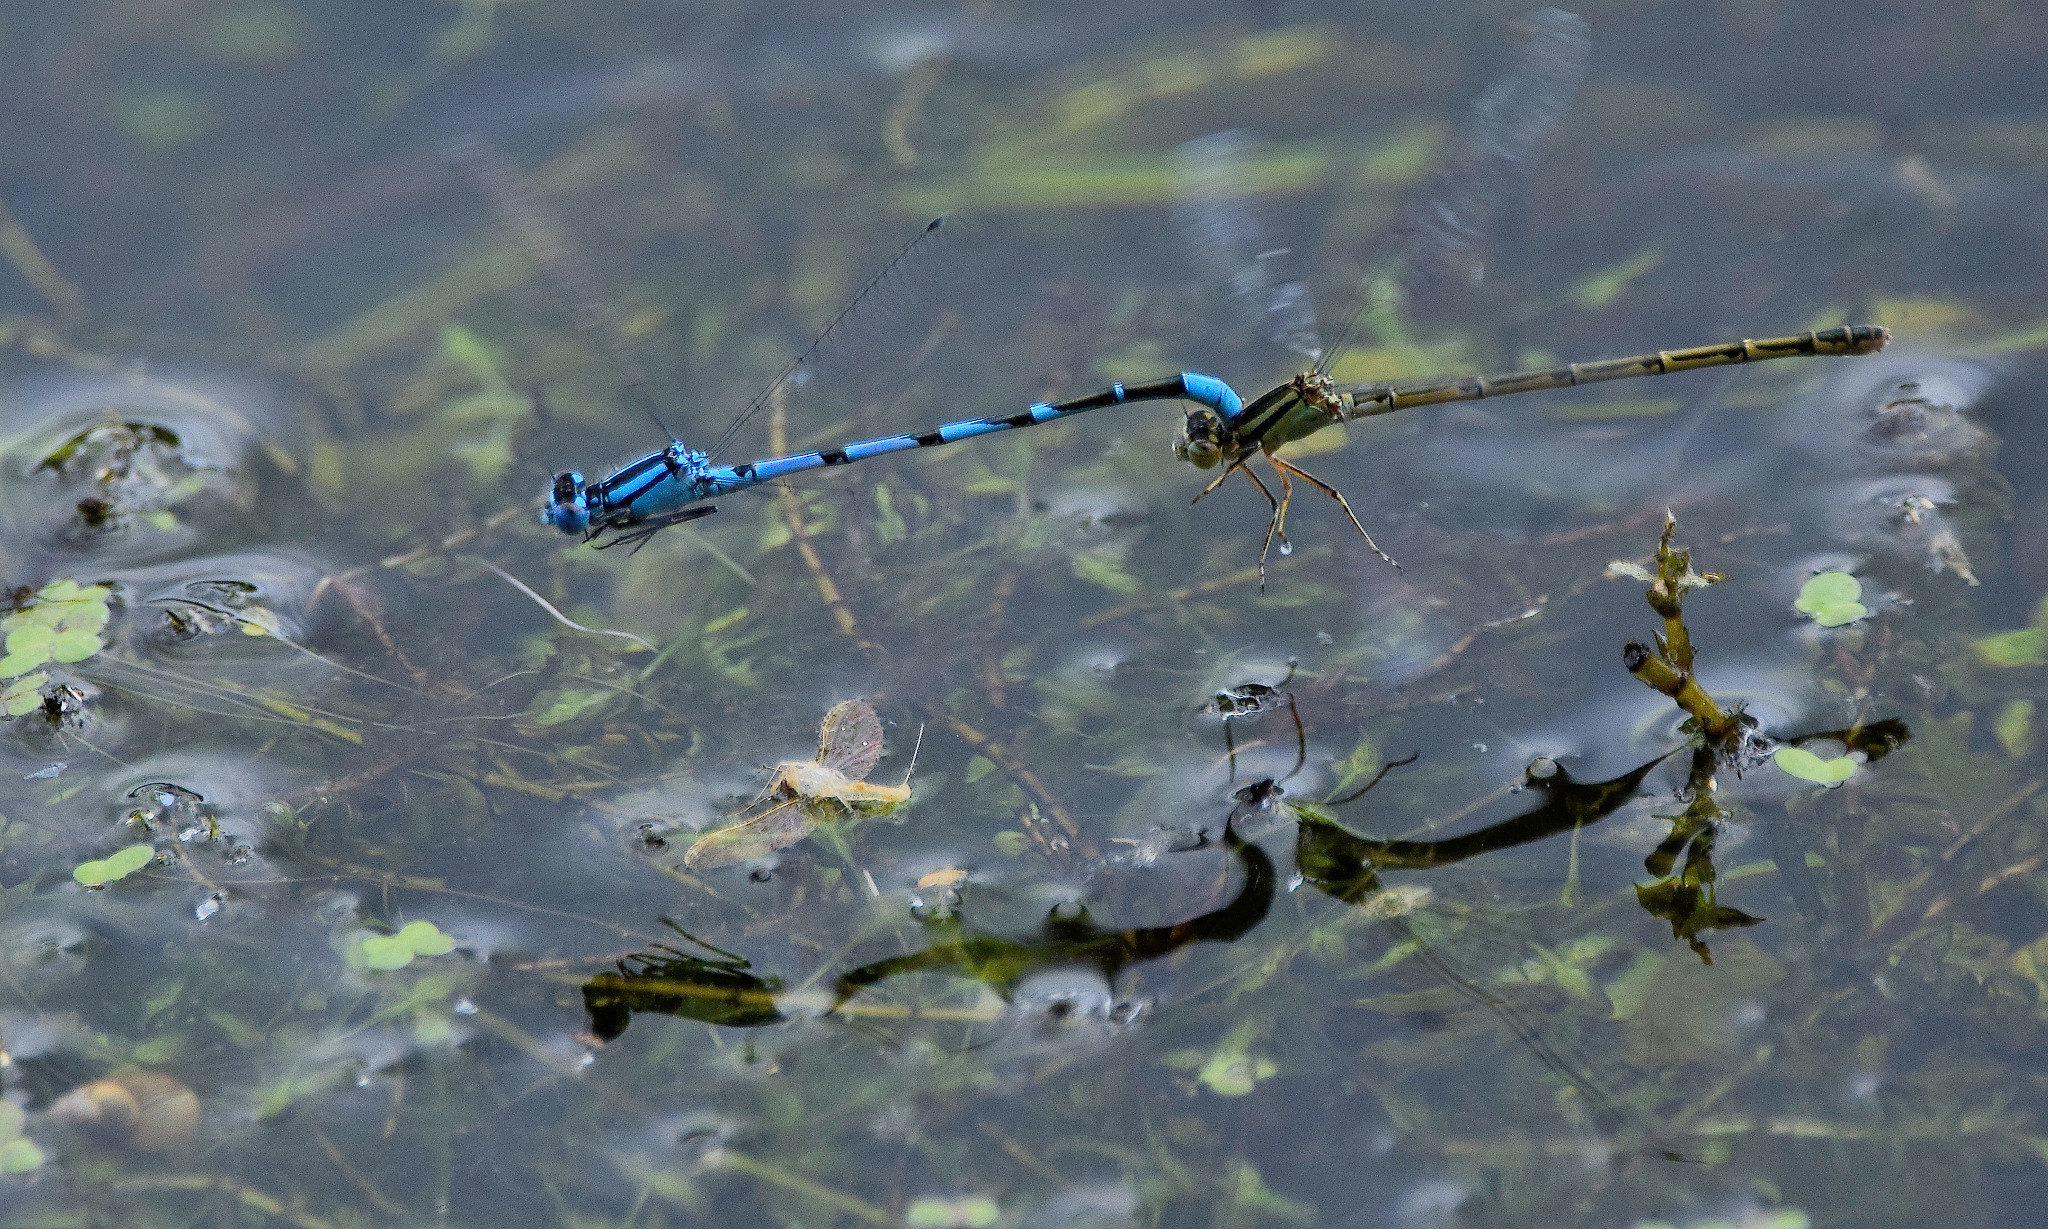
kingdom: Animalia
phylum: Arthropoda
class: Insecta
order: Odonata
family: Coenagrionidae
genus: Enallagma
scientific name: Enallagma cyathigerum
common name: Common blue damselfly
